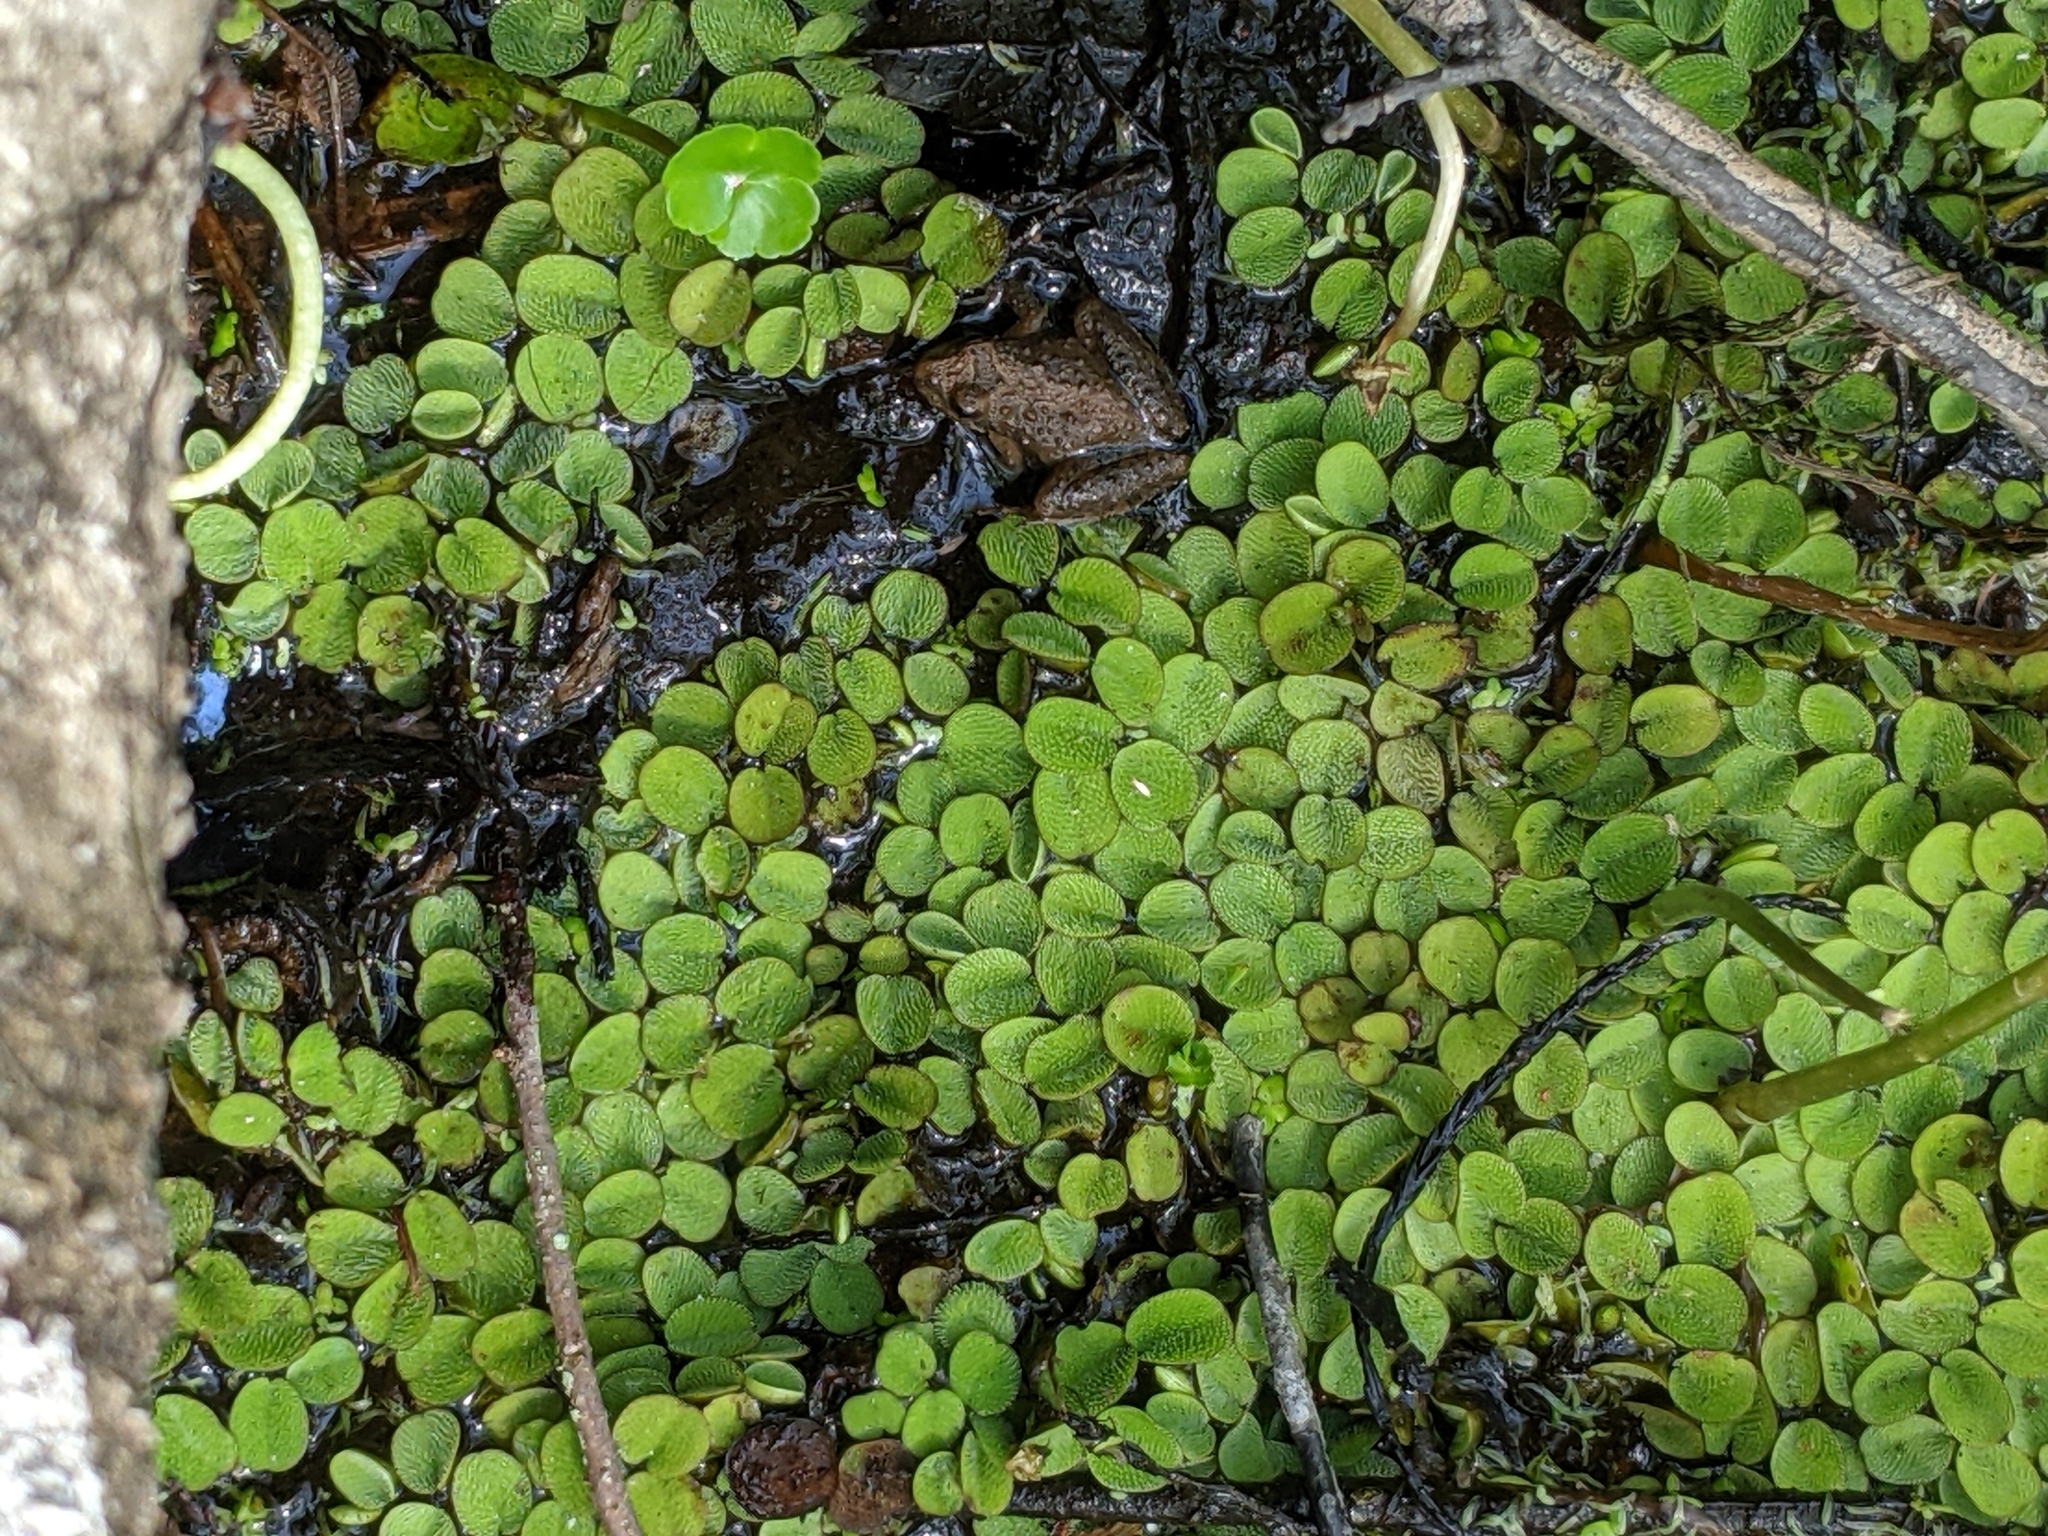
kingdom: Plantae
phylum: Tracheophyta
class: Polypodiopsida
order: Salviniales
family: Salviniaceae
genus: Salvinia
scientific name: Salvinia minima
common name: Water spangles
